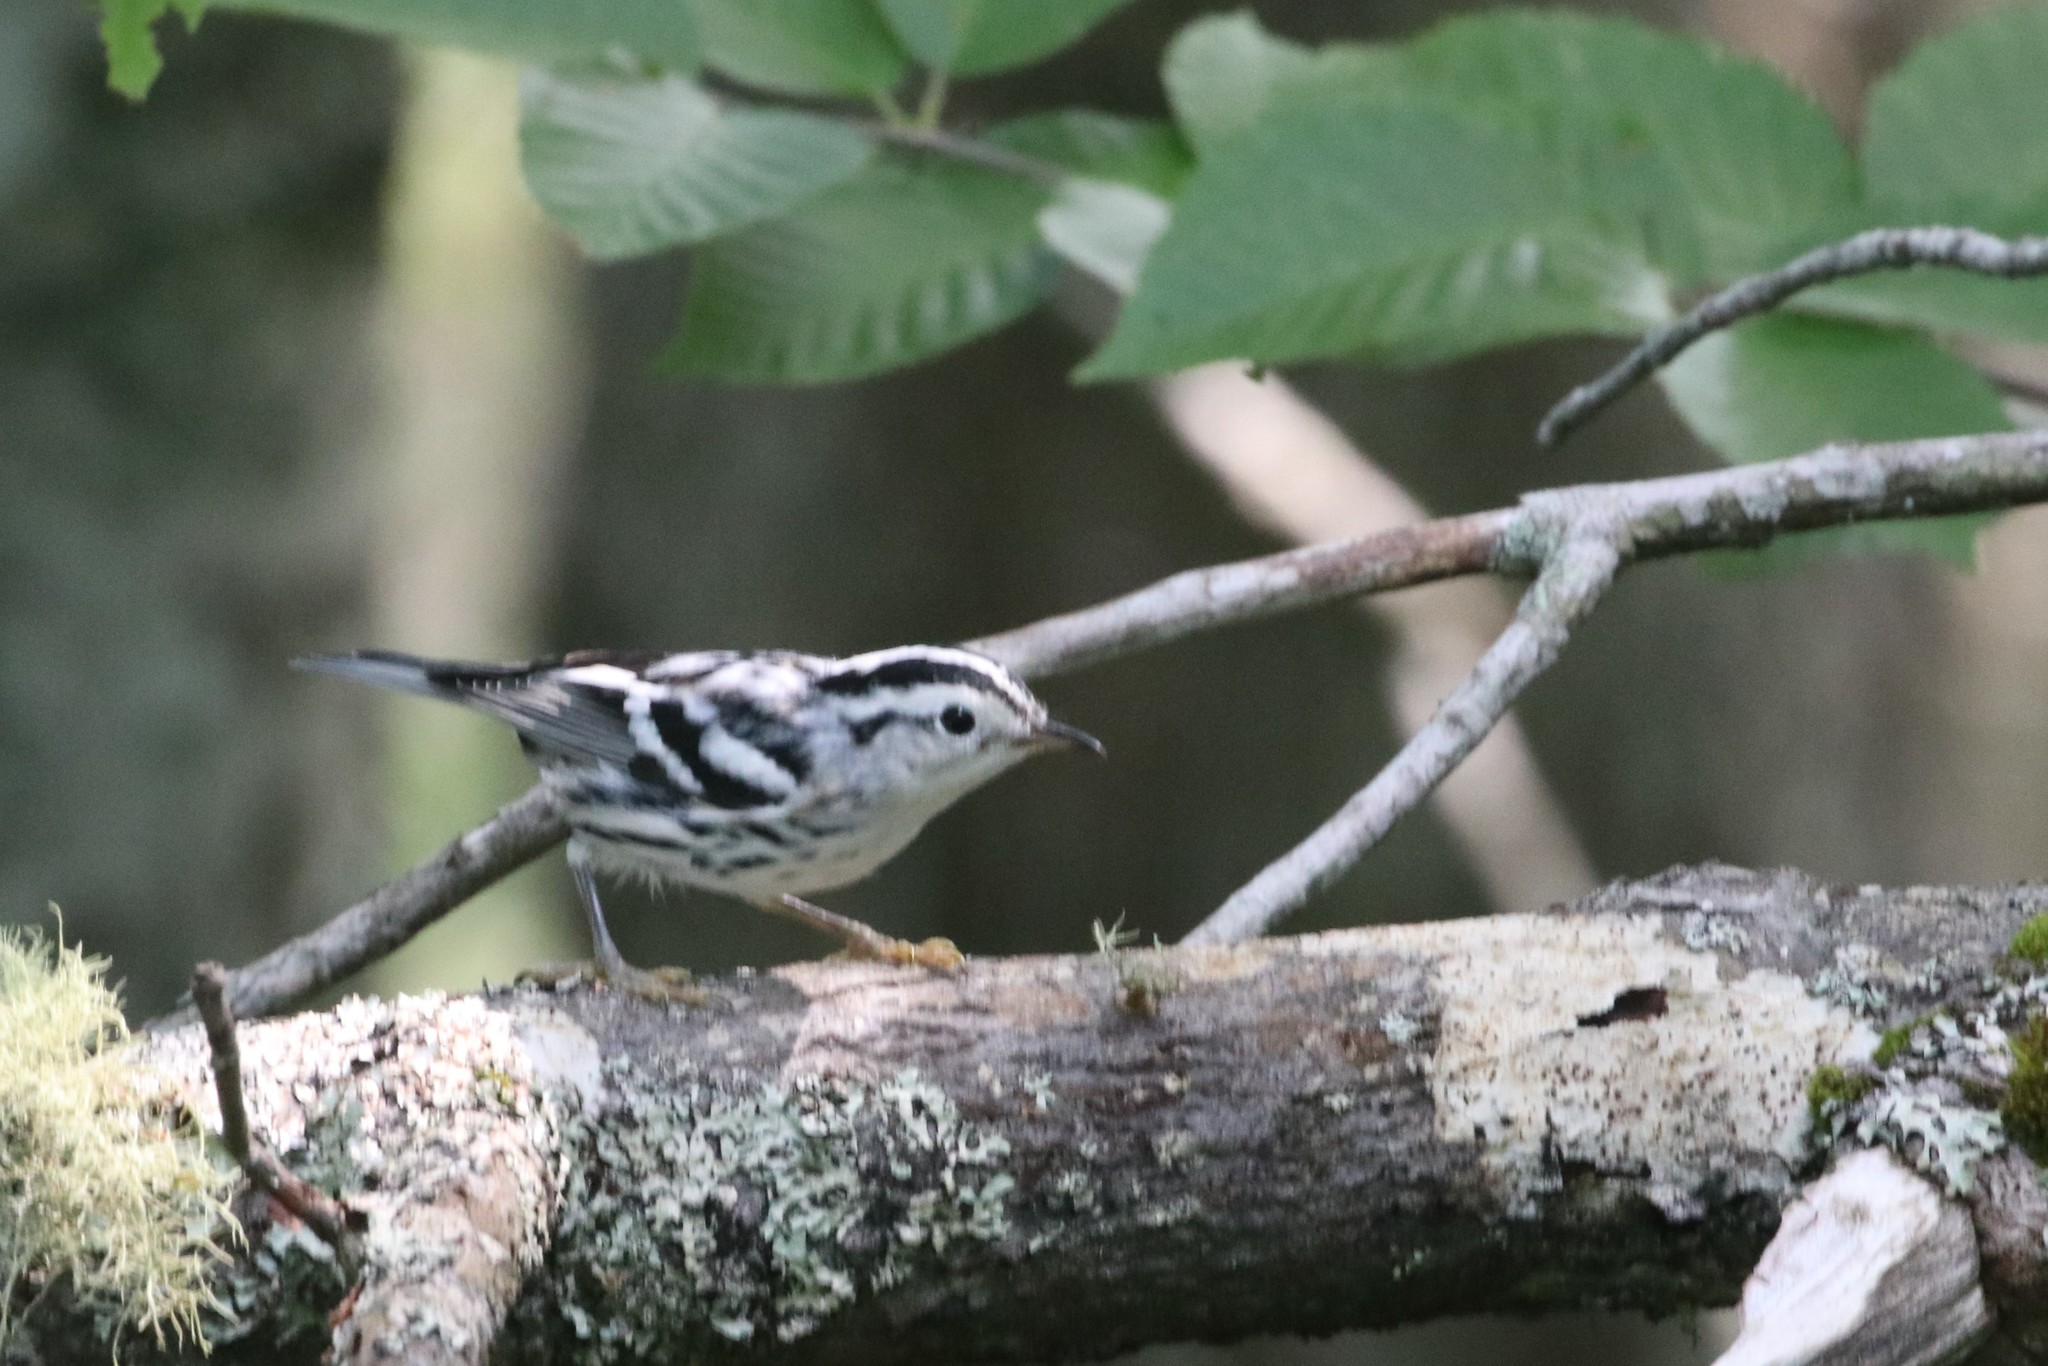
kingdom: Animalia
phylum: Chordata
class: Aves
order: Passeriformes
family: Parulidae
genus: Mniotilta
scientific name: Mniotilta varia
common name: Black-and-white warbler
